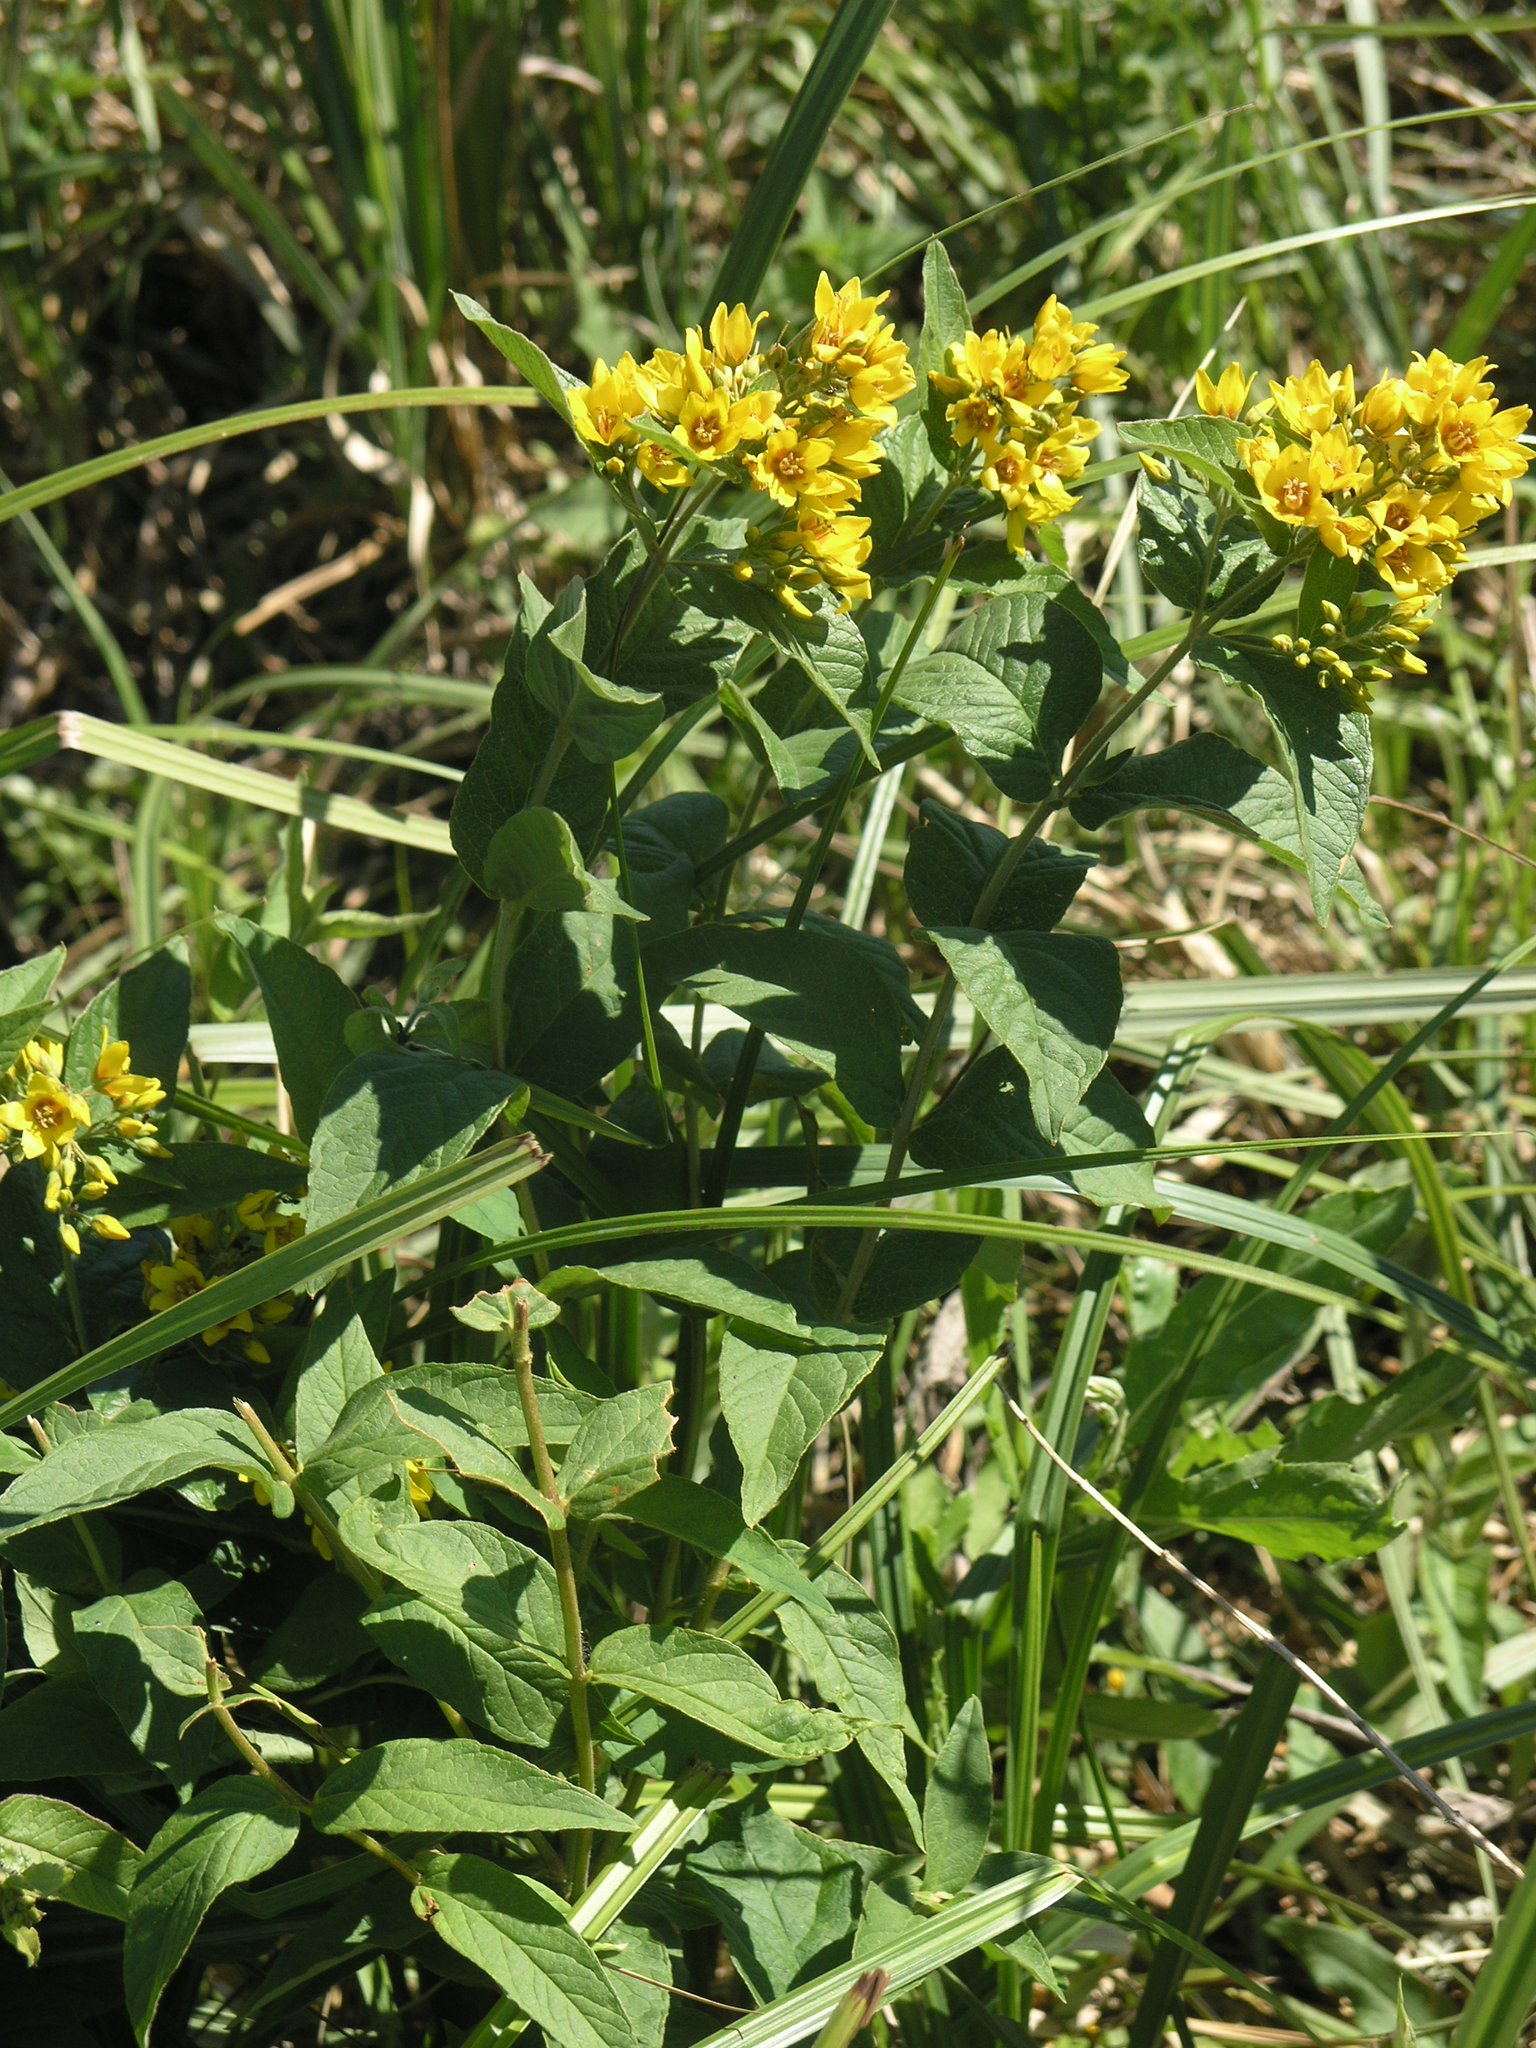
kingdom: Plantae
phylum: Tracheophyta
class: Magnoliopsida
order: Ericales
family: Primulaceae
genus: Lysimachia
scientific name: Lysimachia vulgaris
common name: Yellow loosestrife
